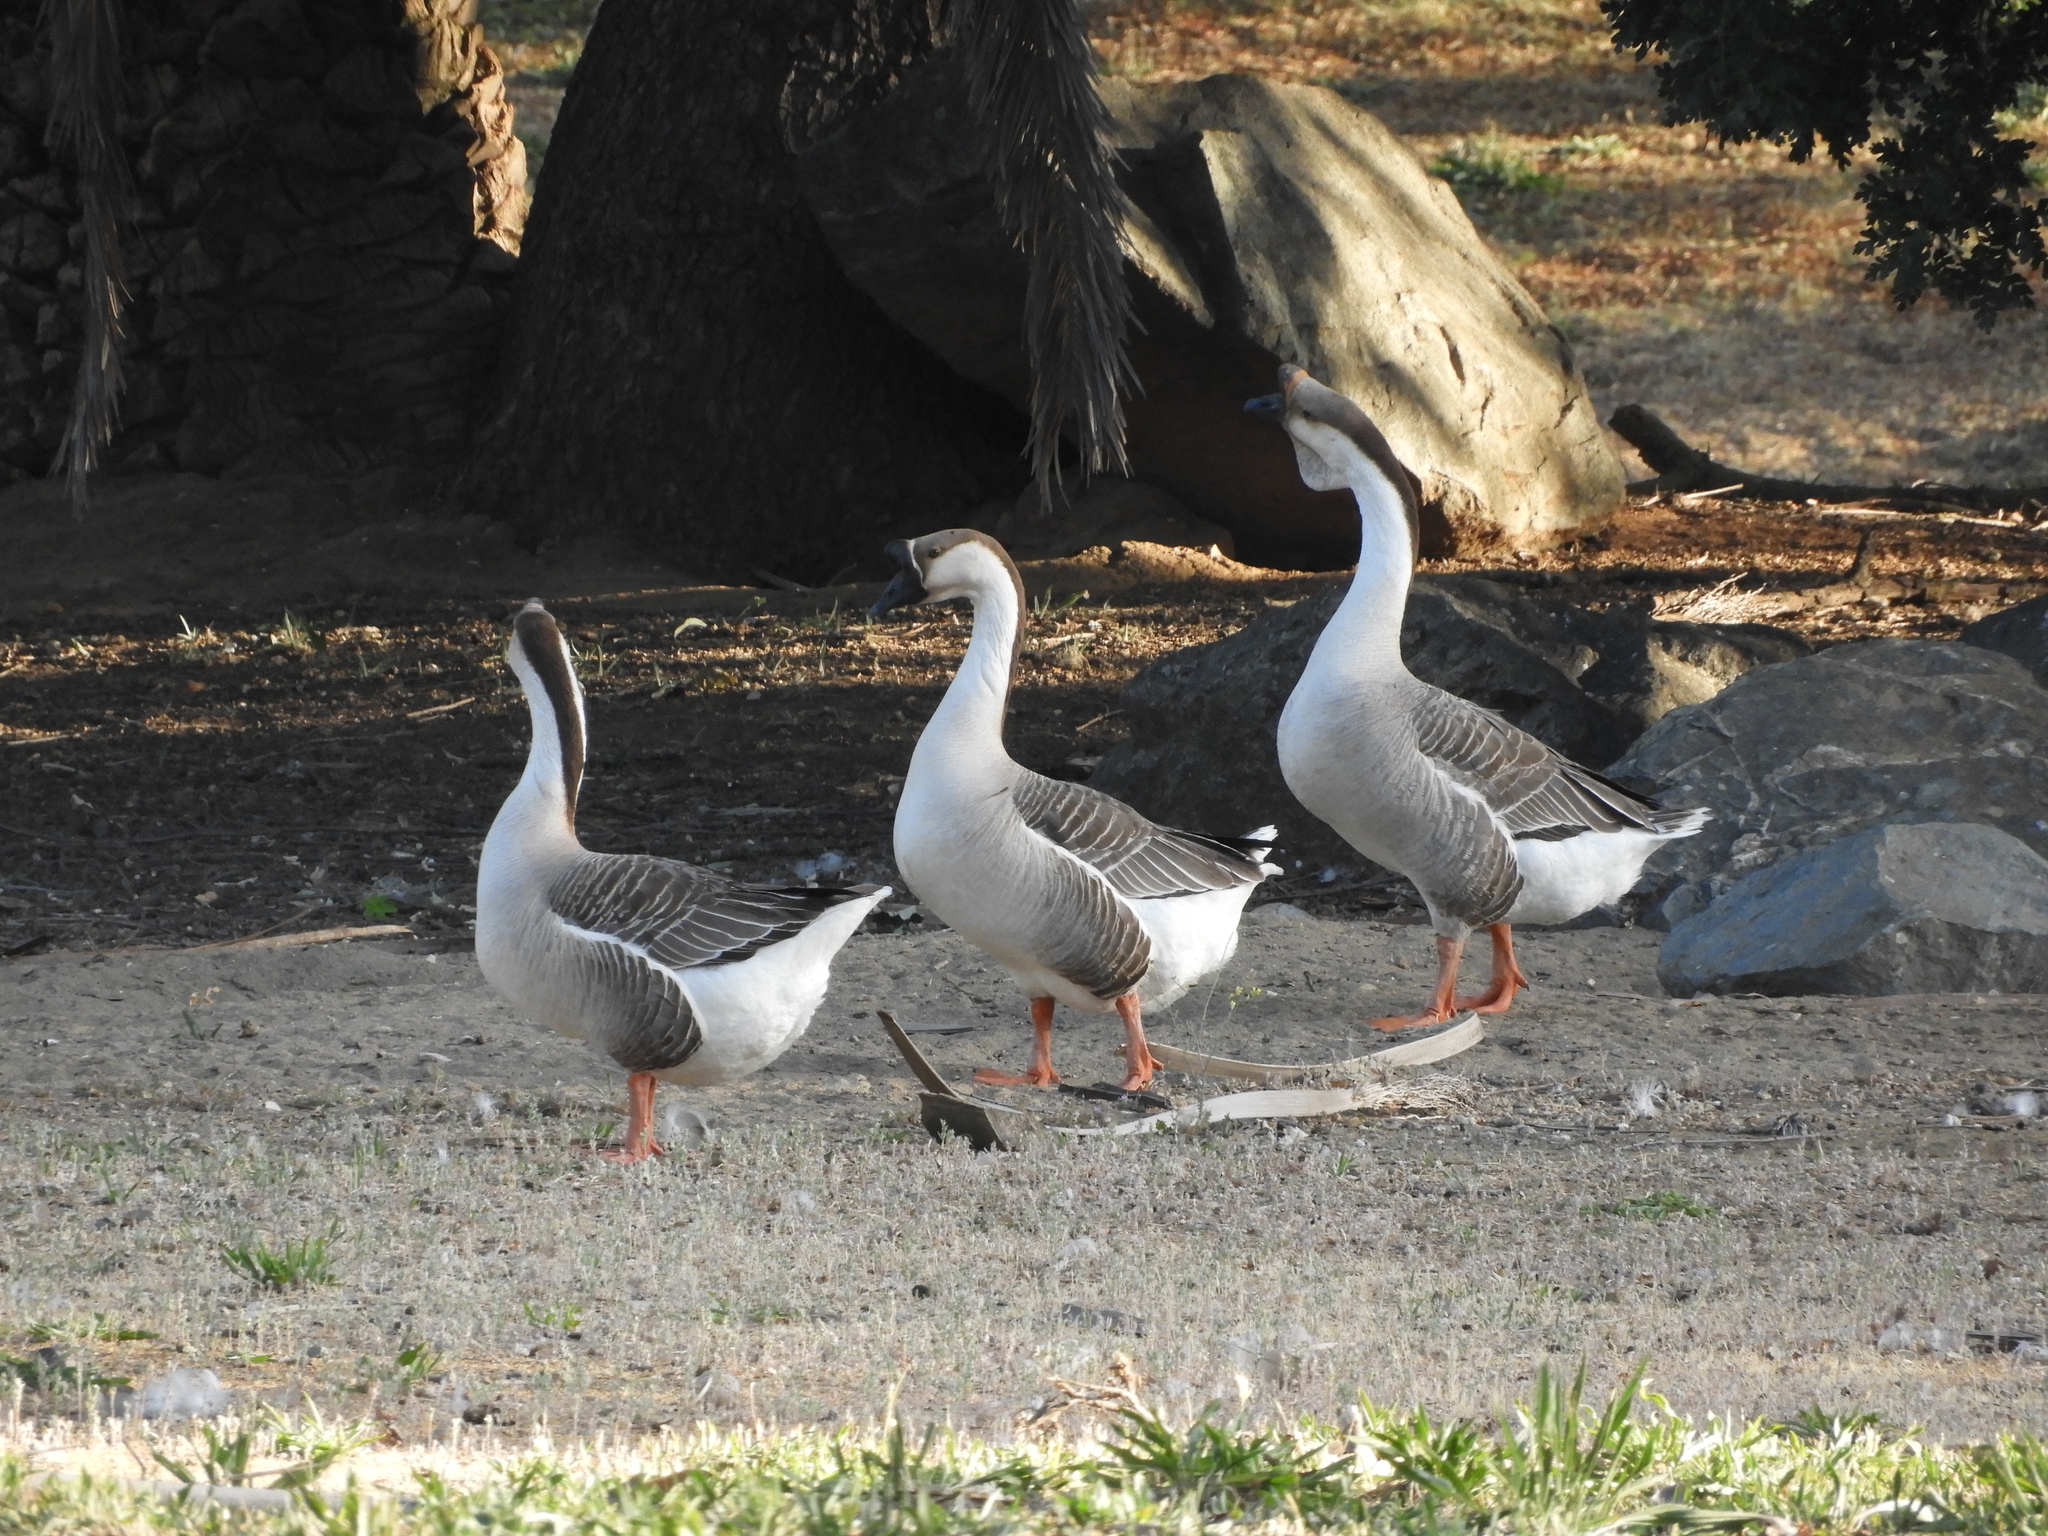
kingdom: Animalia
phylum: Chordata
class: Aves
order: Anseriformes
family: Anatidae
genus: Anser
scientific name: Anser cygnoides
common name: Swan goose
